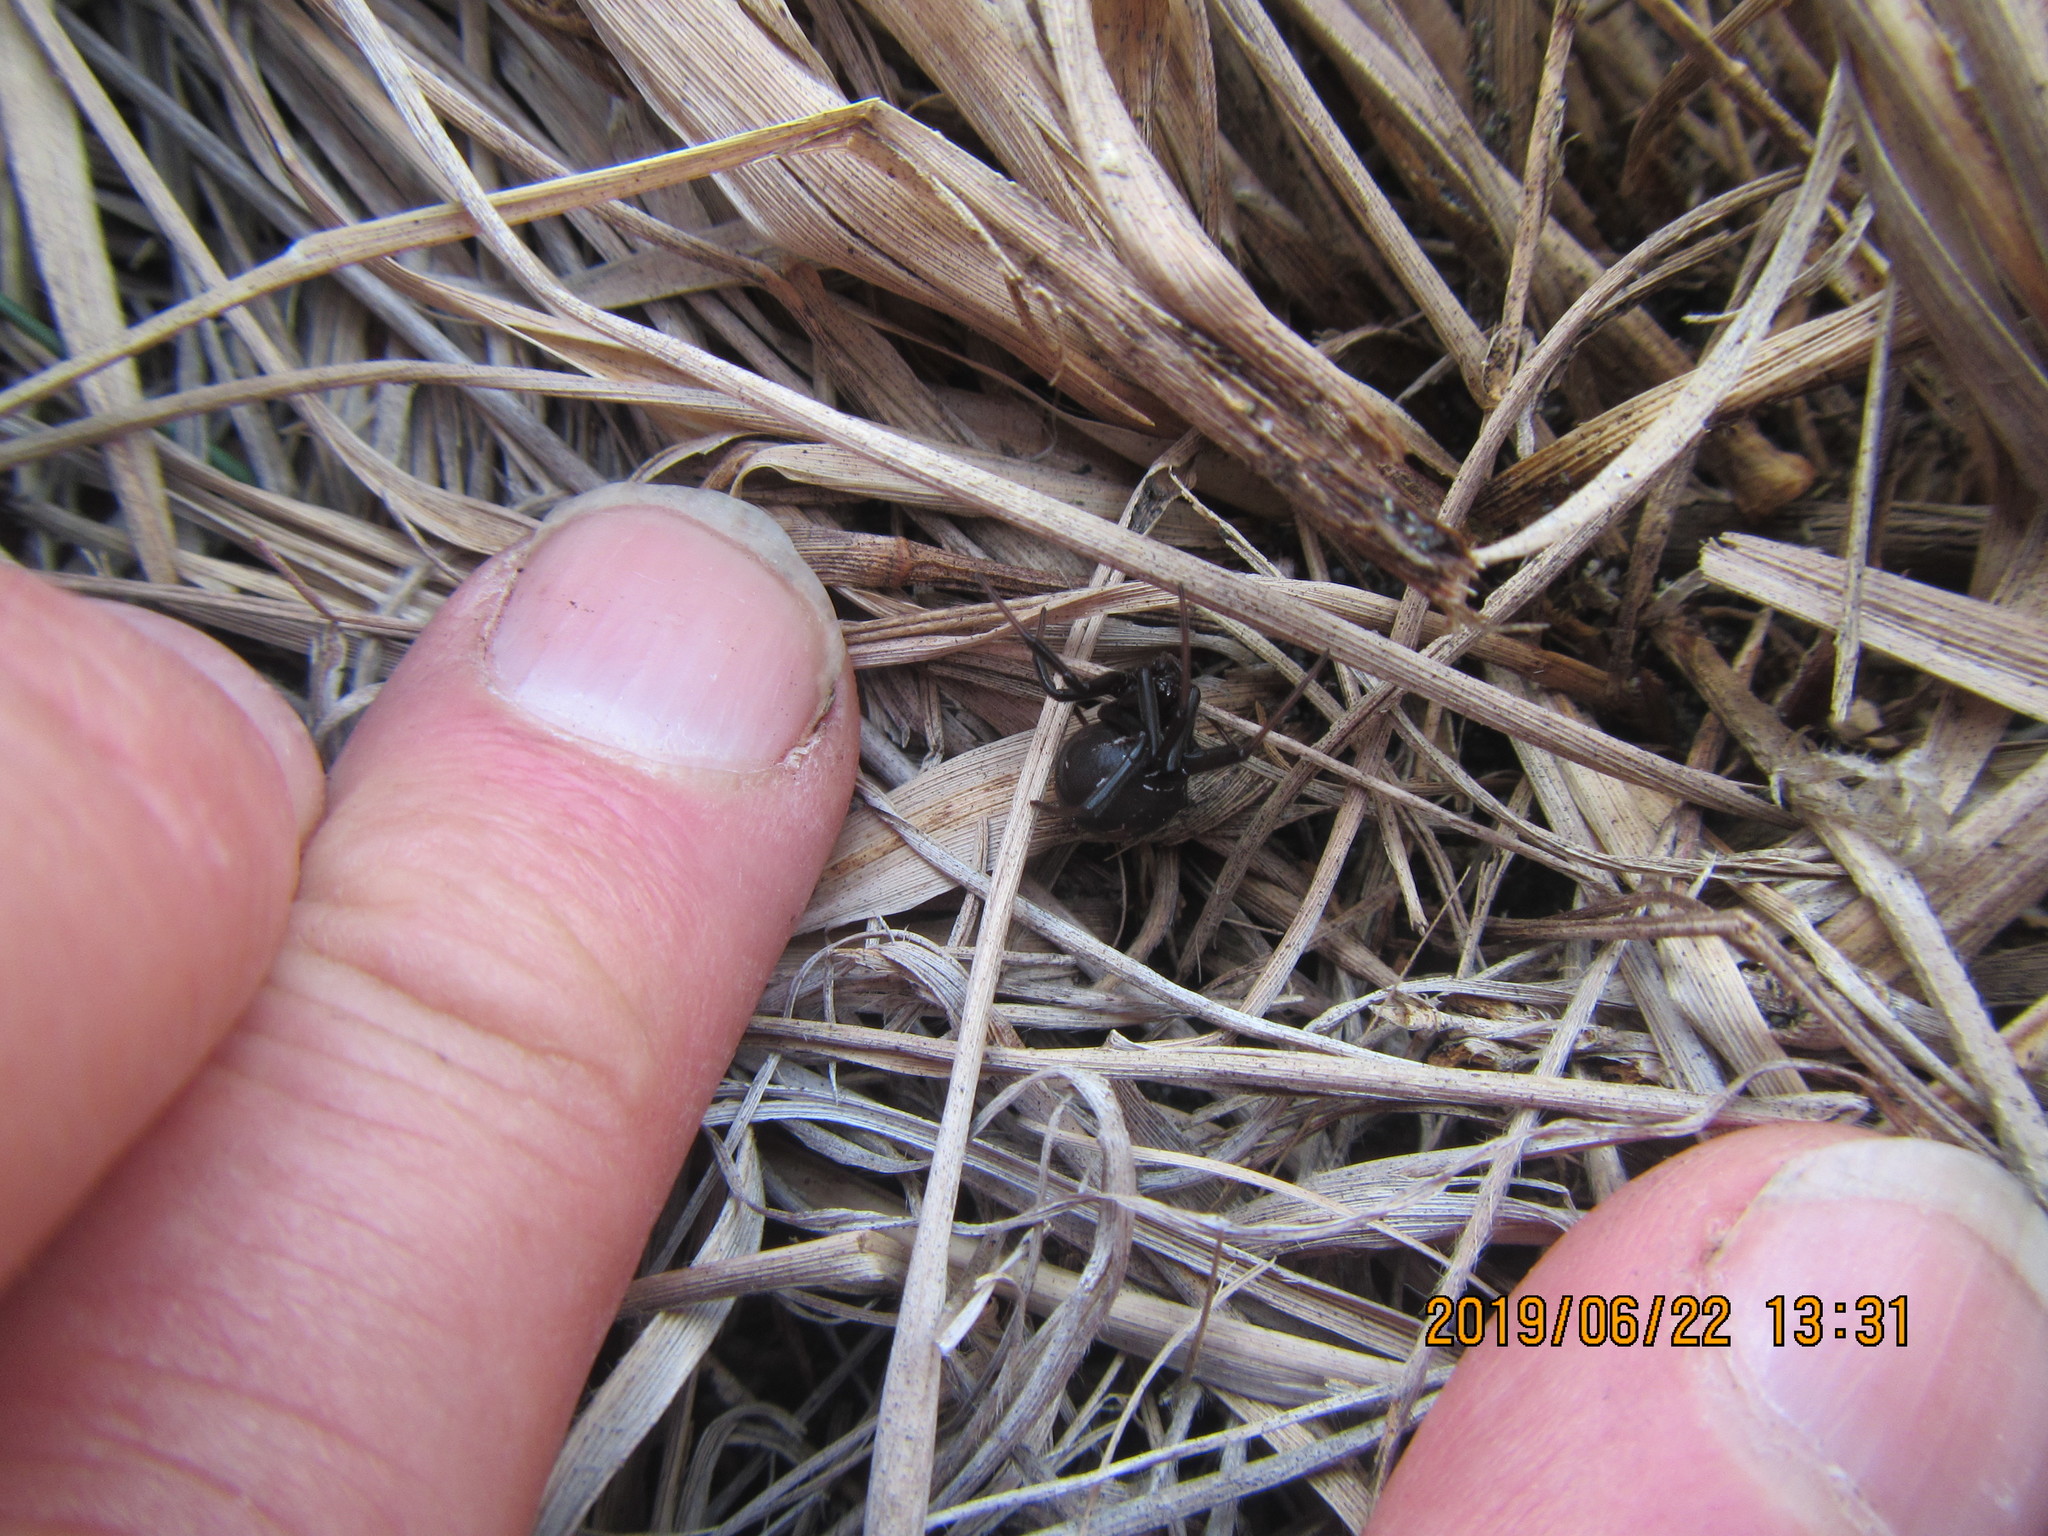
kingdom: Animalia
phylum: Arthropoda
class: Arachnida
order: Araneae
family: Theridiidae
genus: Latrodectus
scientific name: Latrodectus katipo
